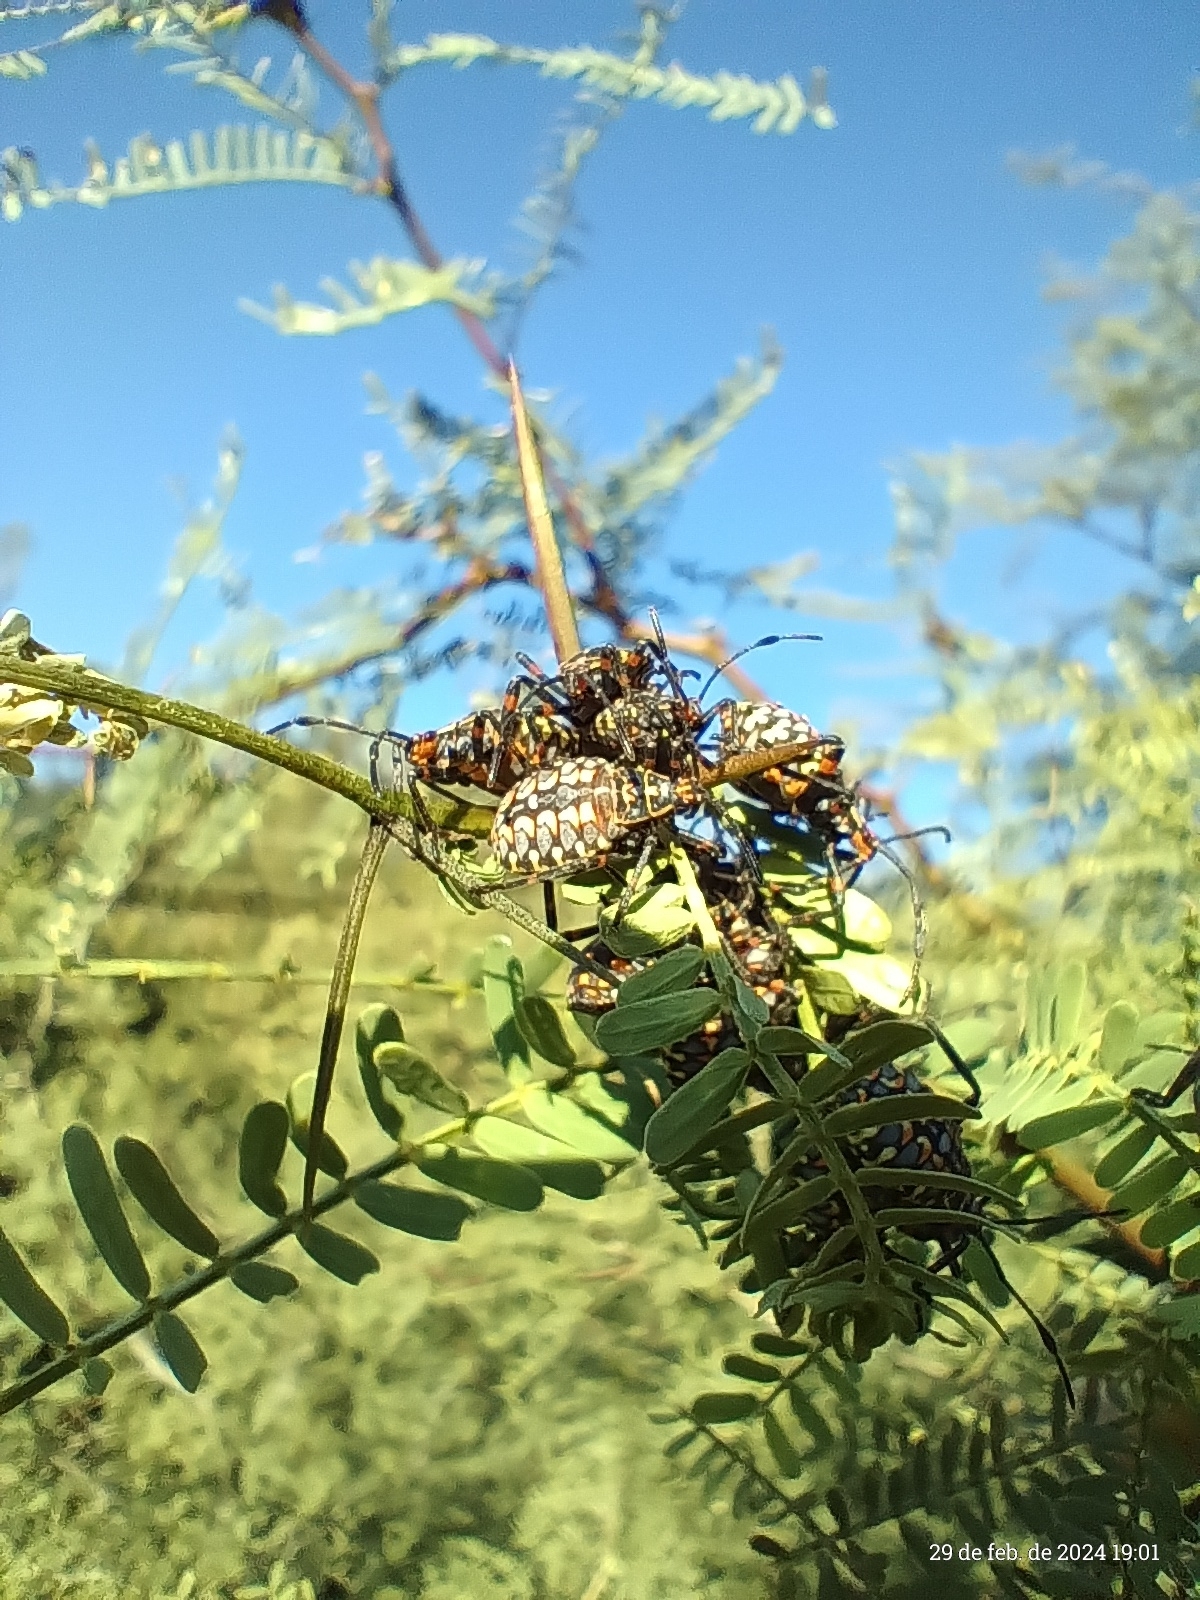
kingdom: Animalia
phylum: Arthropoda
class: Insecta
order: Hemiptera
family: Coreidae
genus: Pachylis
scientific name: Pachylis argentinus
